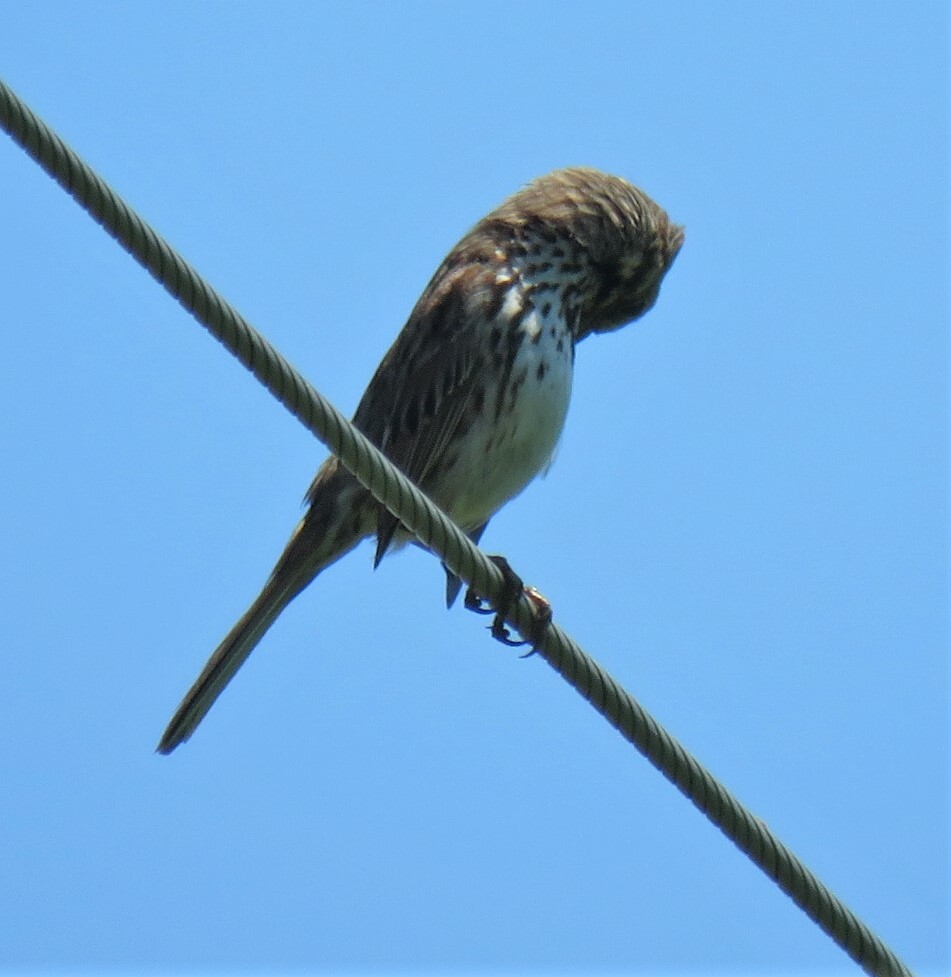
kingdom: Animalia
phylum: Chordata
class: Aves
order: Passeriformes
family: Passerellidae
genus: Melospiza
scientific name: Melospiza melodia
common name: Song sparrow
